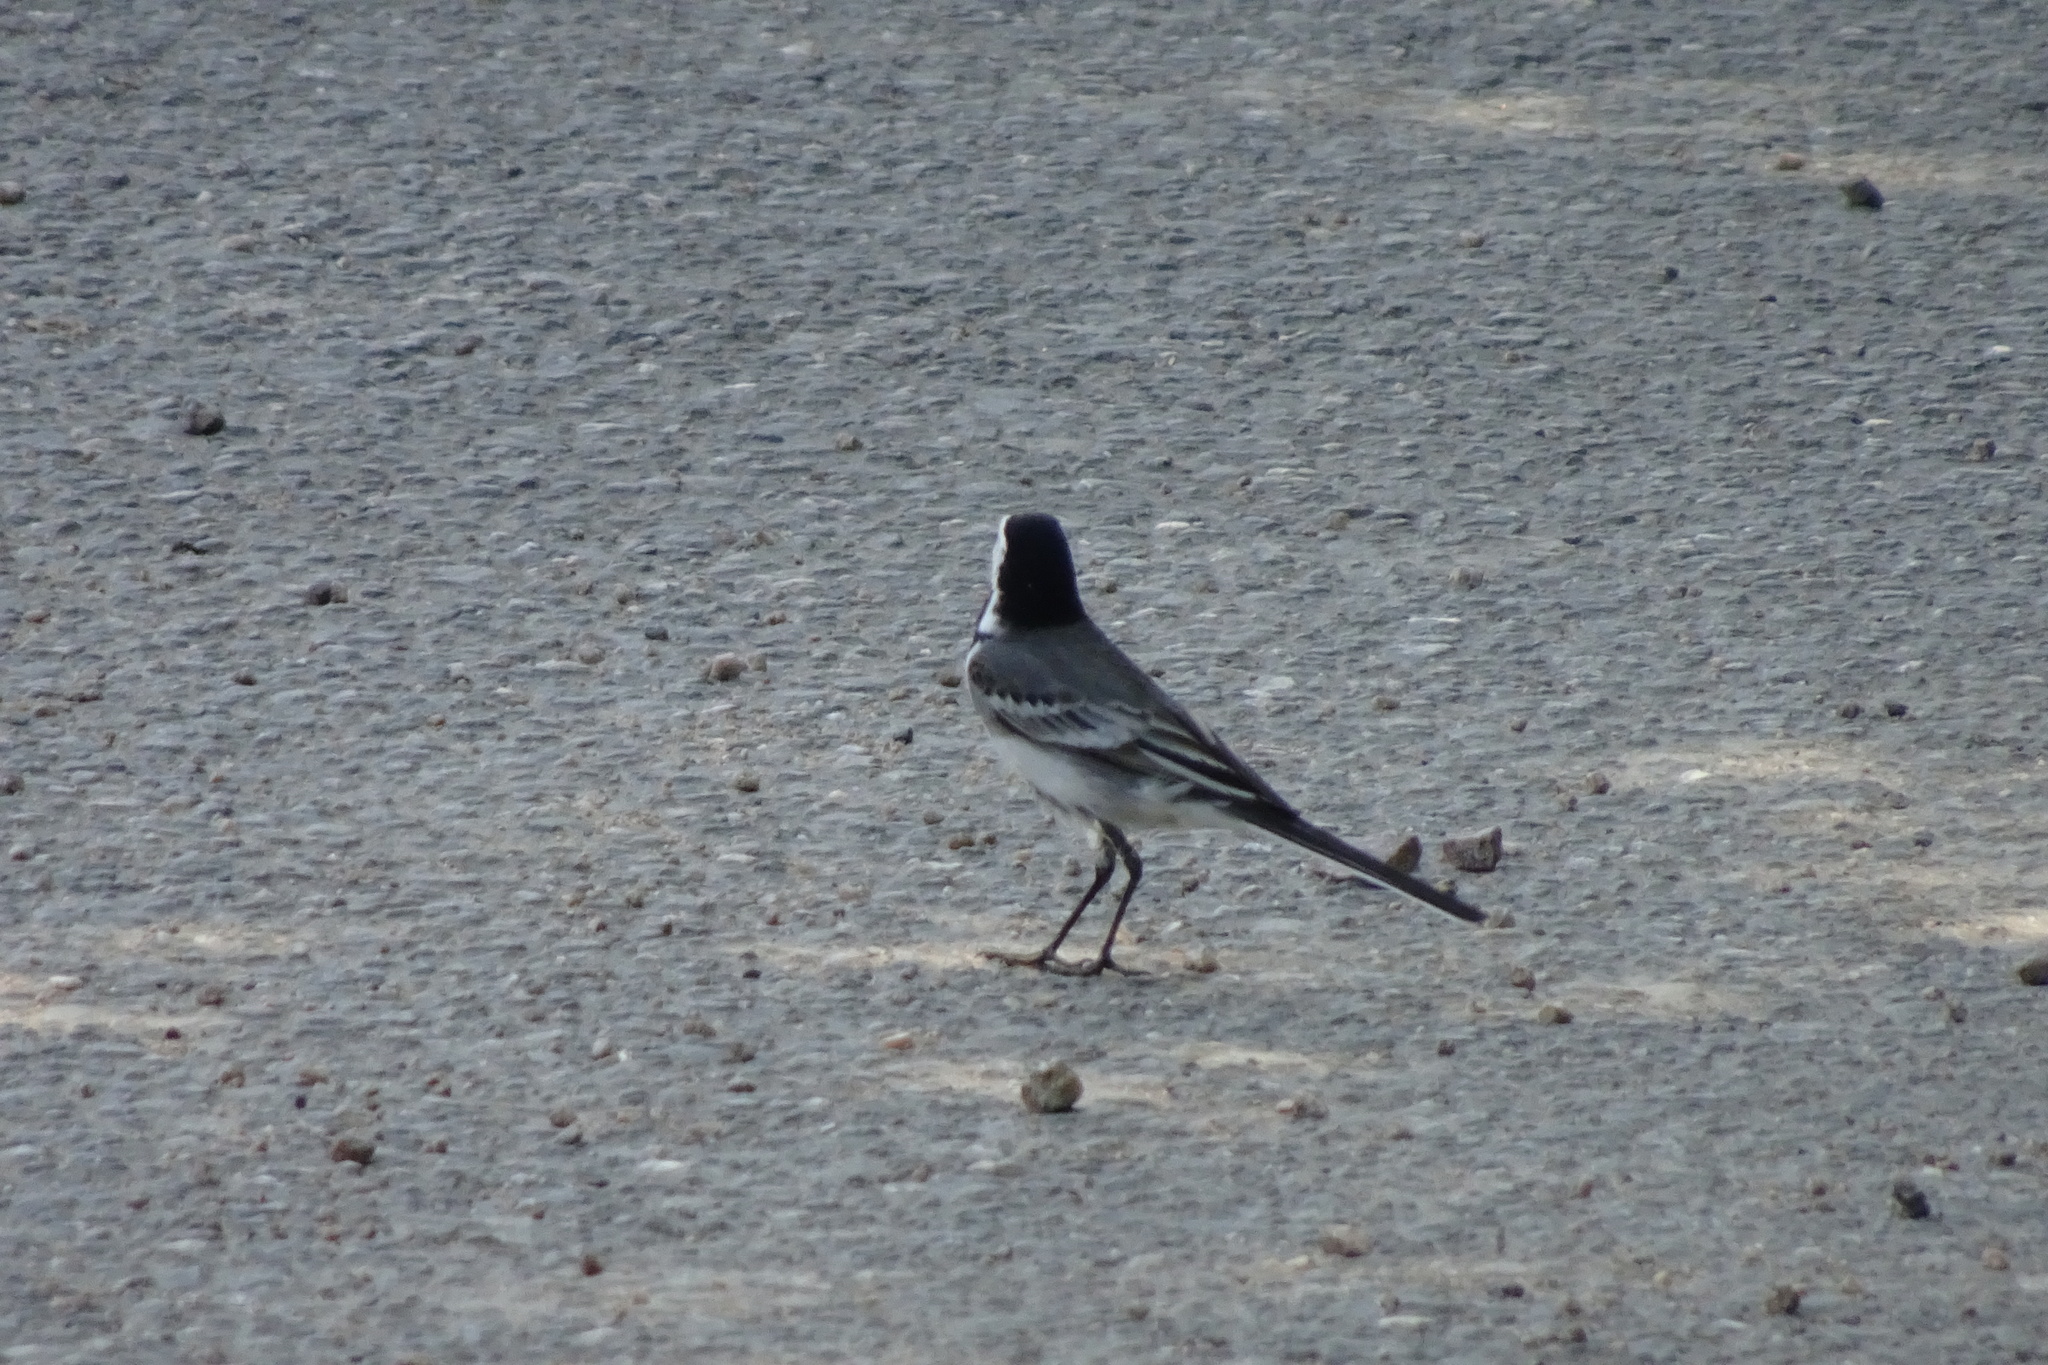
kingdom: Animalia
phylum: Chordata
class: Aves
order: Passeriformes
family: Motacillidae
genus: Motacilla
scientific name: Motacilla alba
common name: White wagtail
